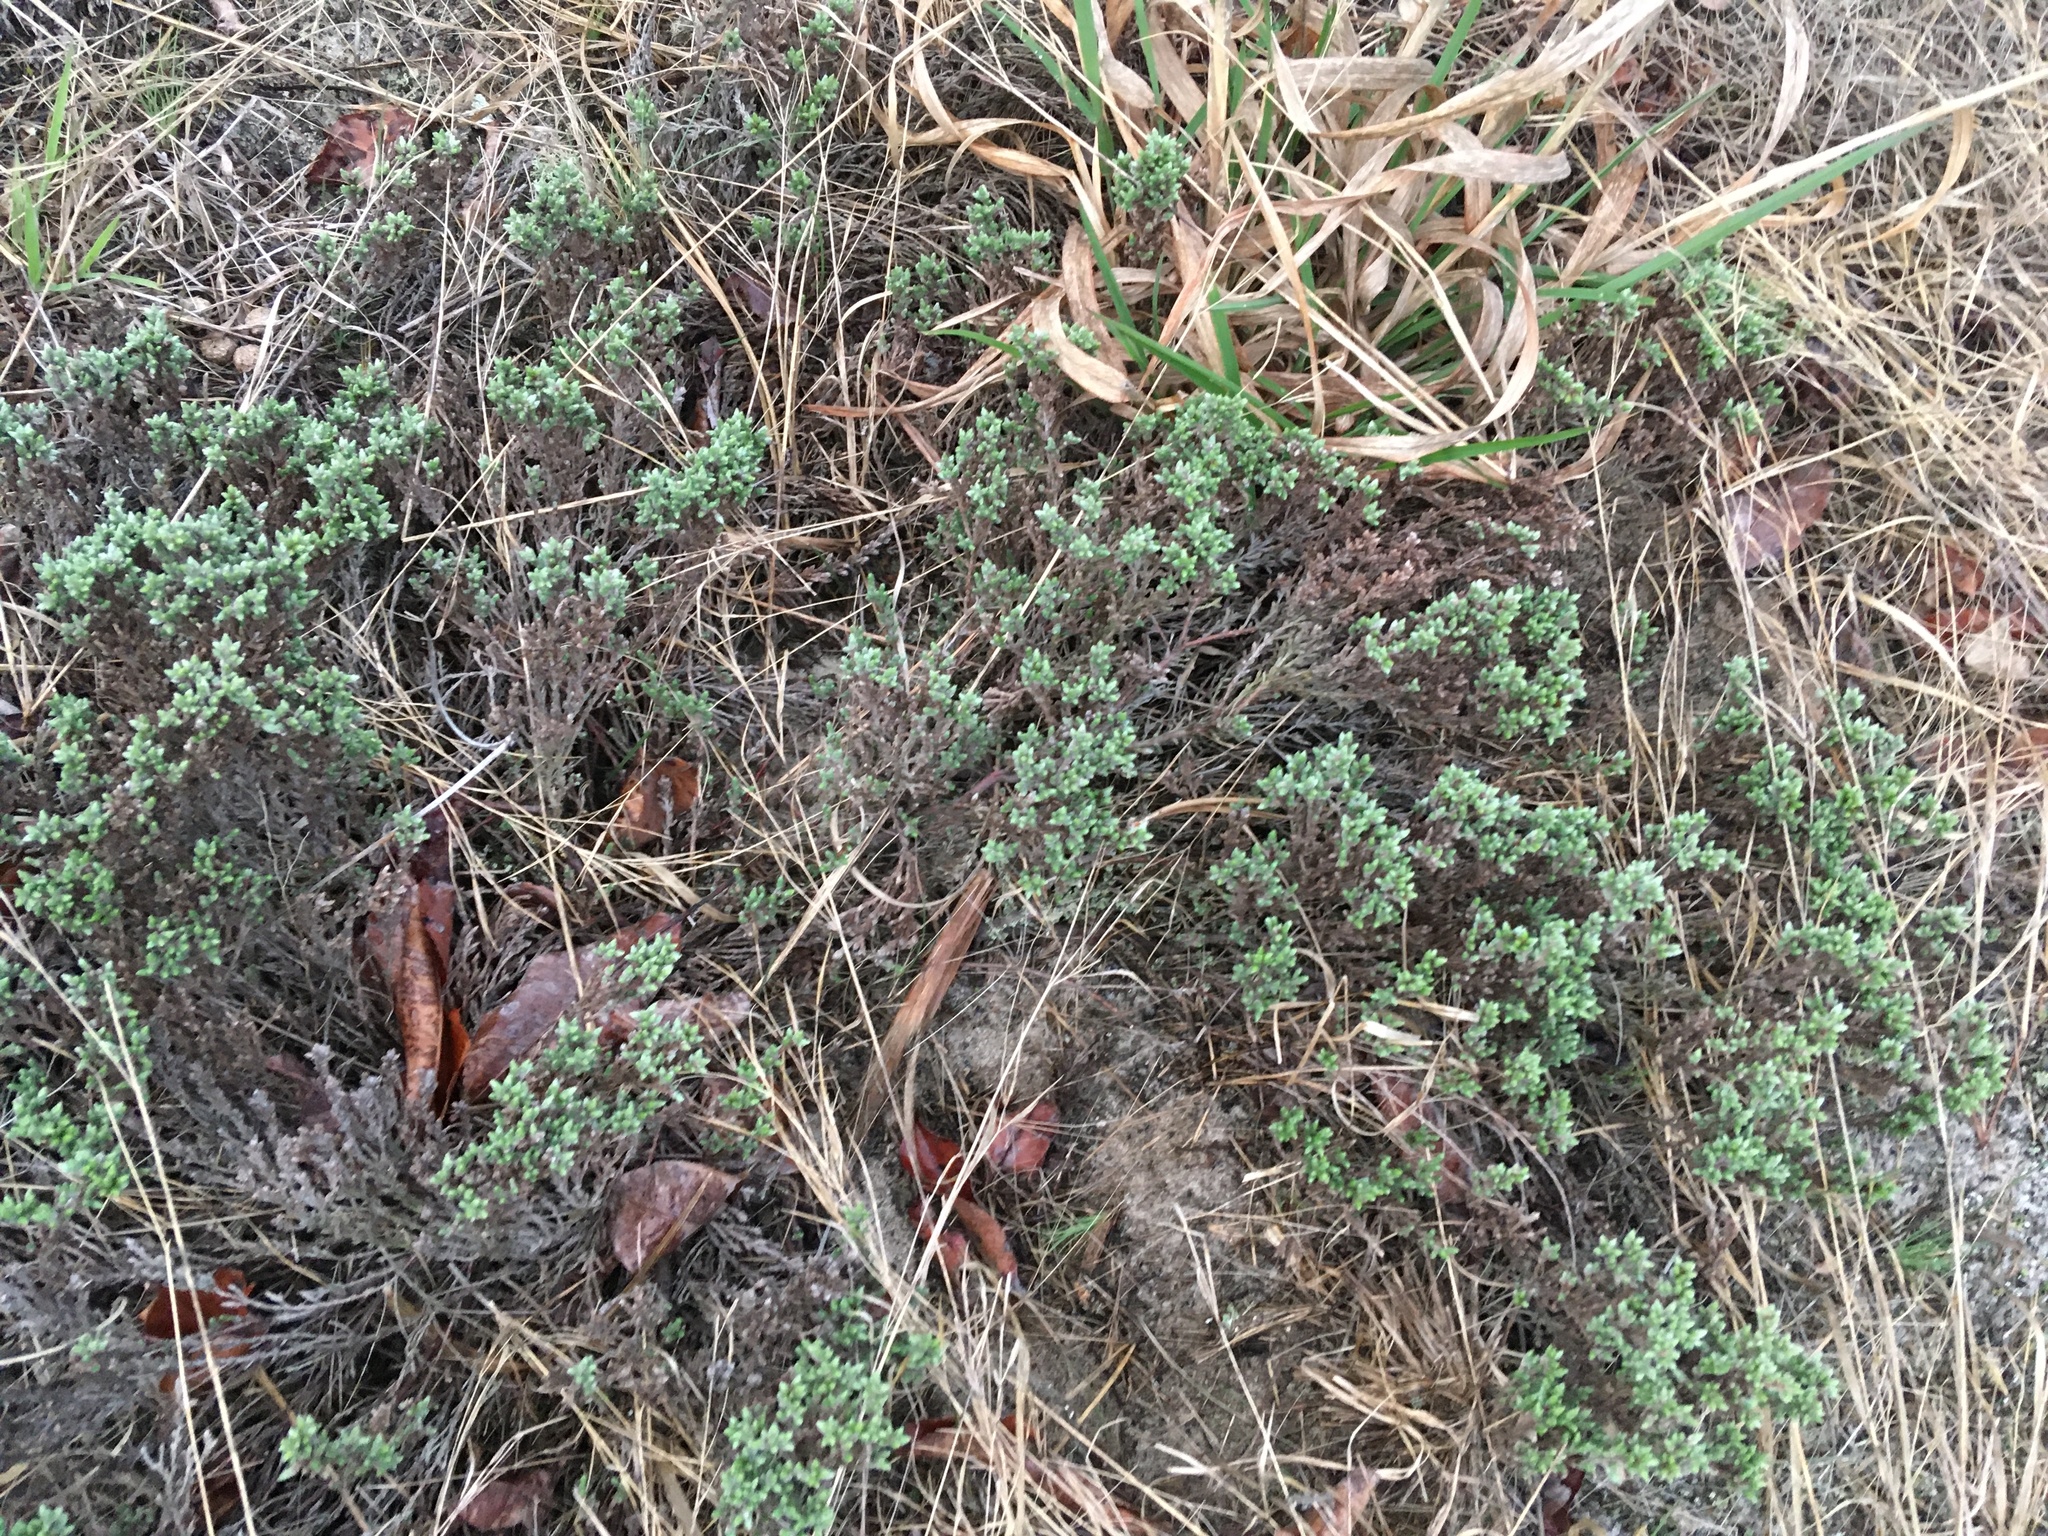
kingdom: Plantae
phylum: Tracheophyta
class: Magnoliopsida
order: Malvales
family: Cistaceae
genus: Hudsonia
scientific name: Hudsonia tomentosa
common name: Beach-heath
